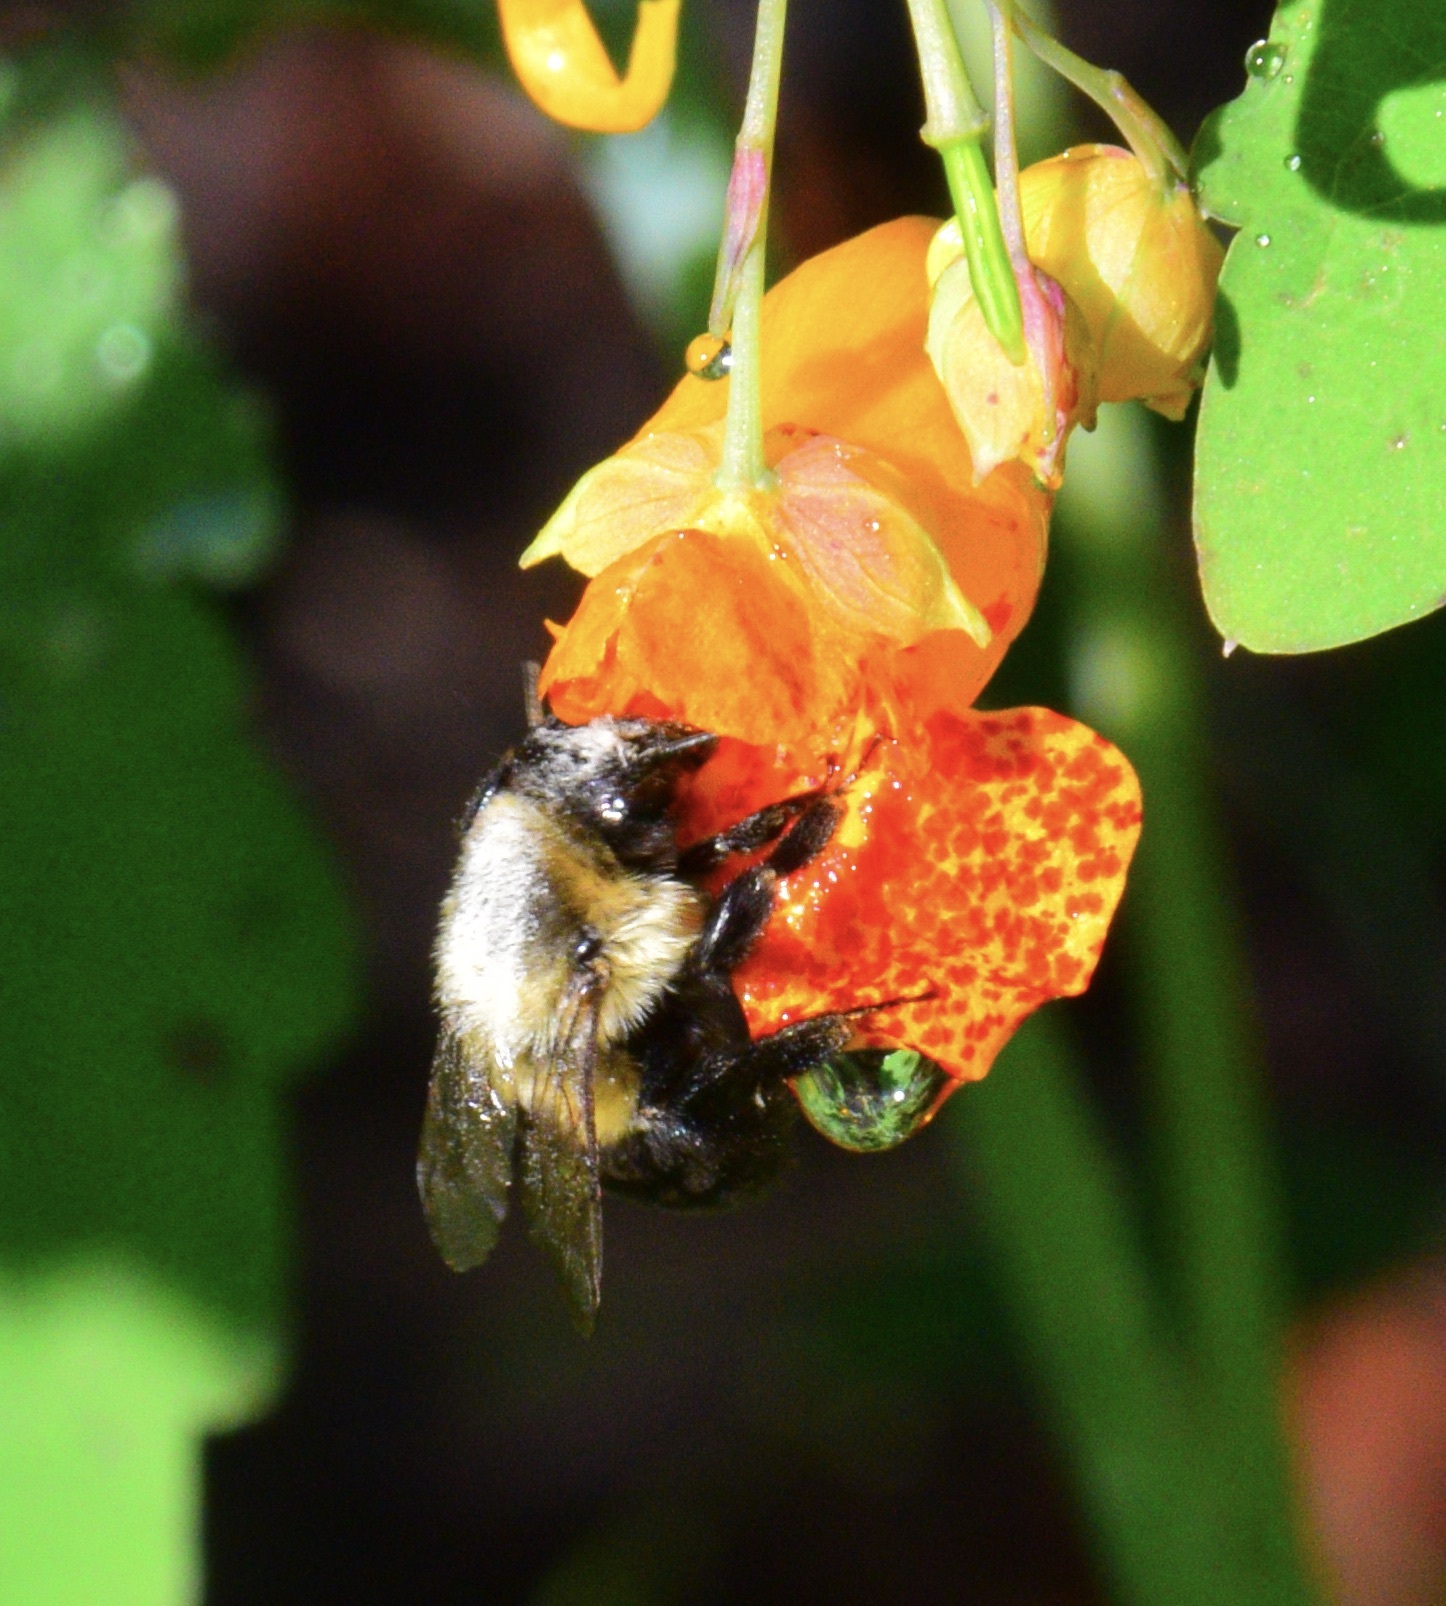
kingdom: Animalia
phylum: Arthropoda
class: Insecta
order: Hymenoptera
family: Apidae
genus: Bombus
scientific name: Bombus impatiens
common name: Common eastern bumble bee
